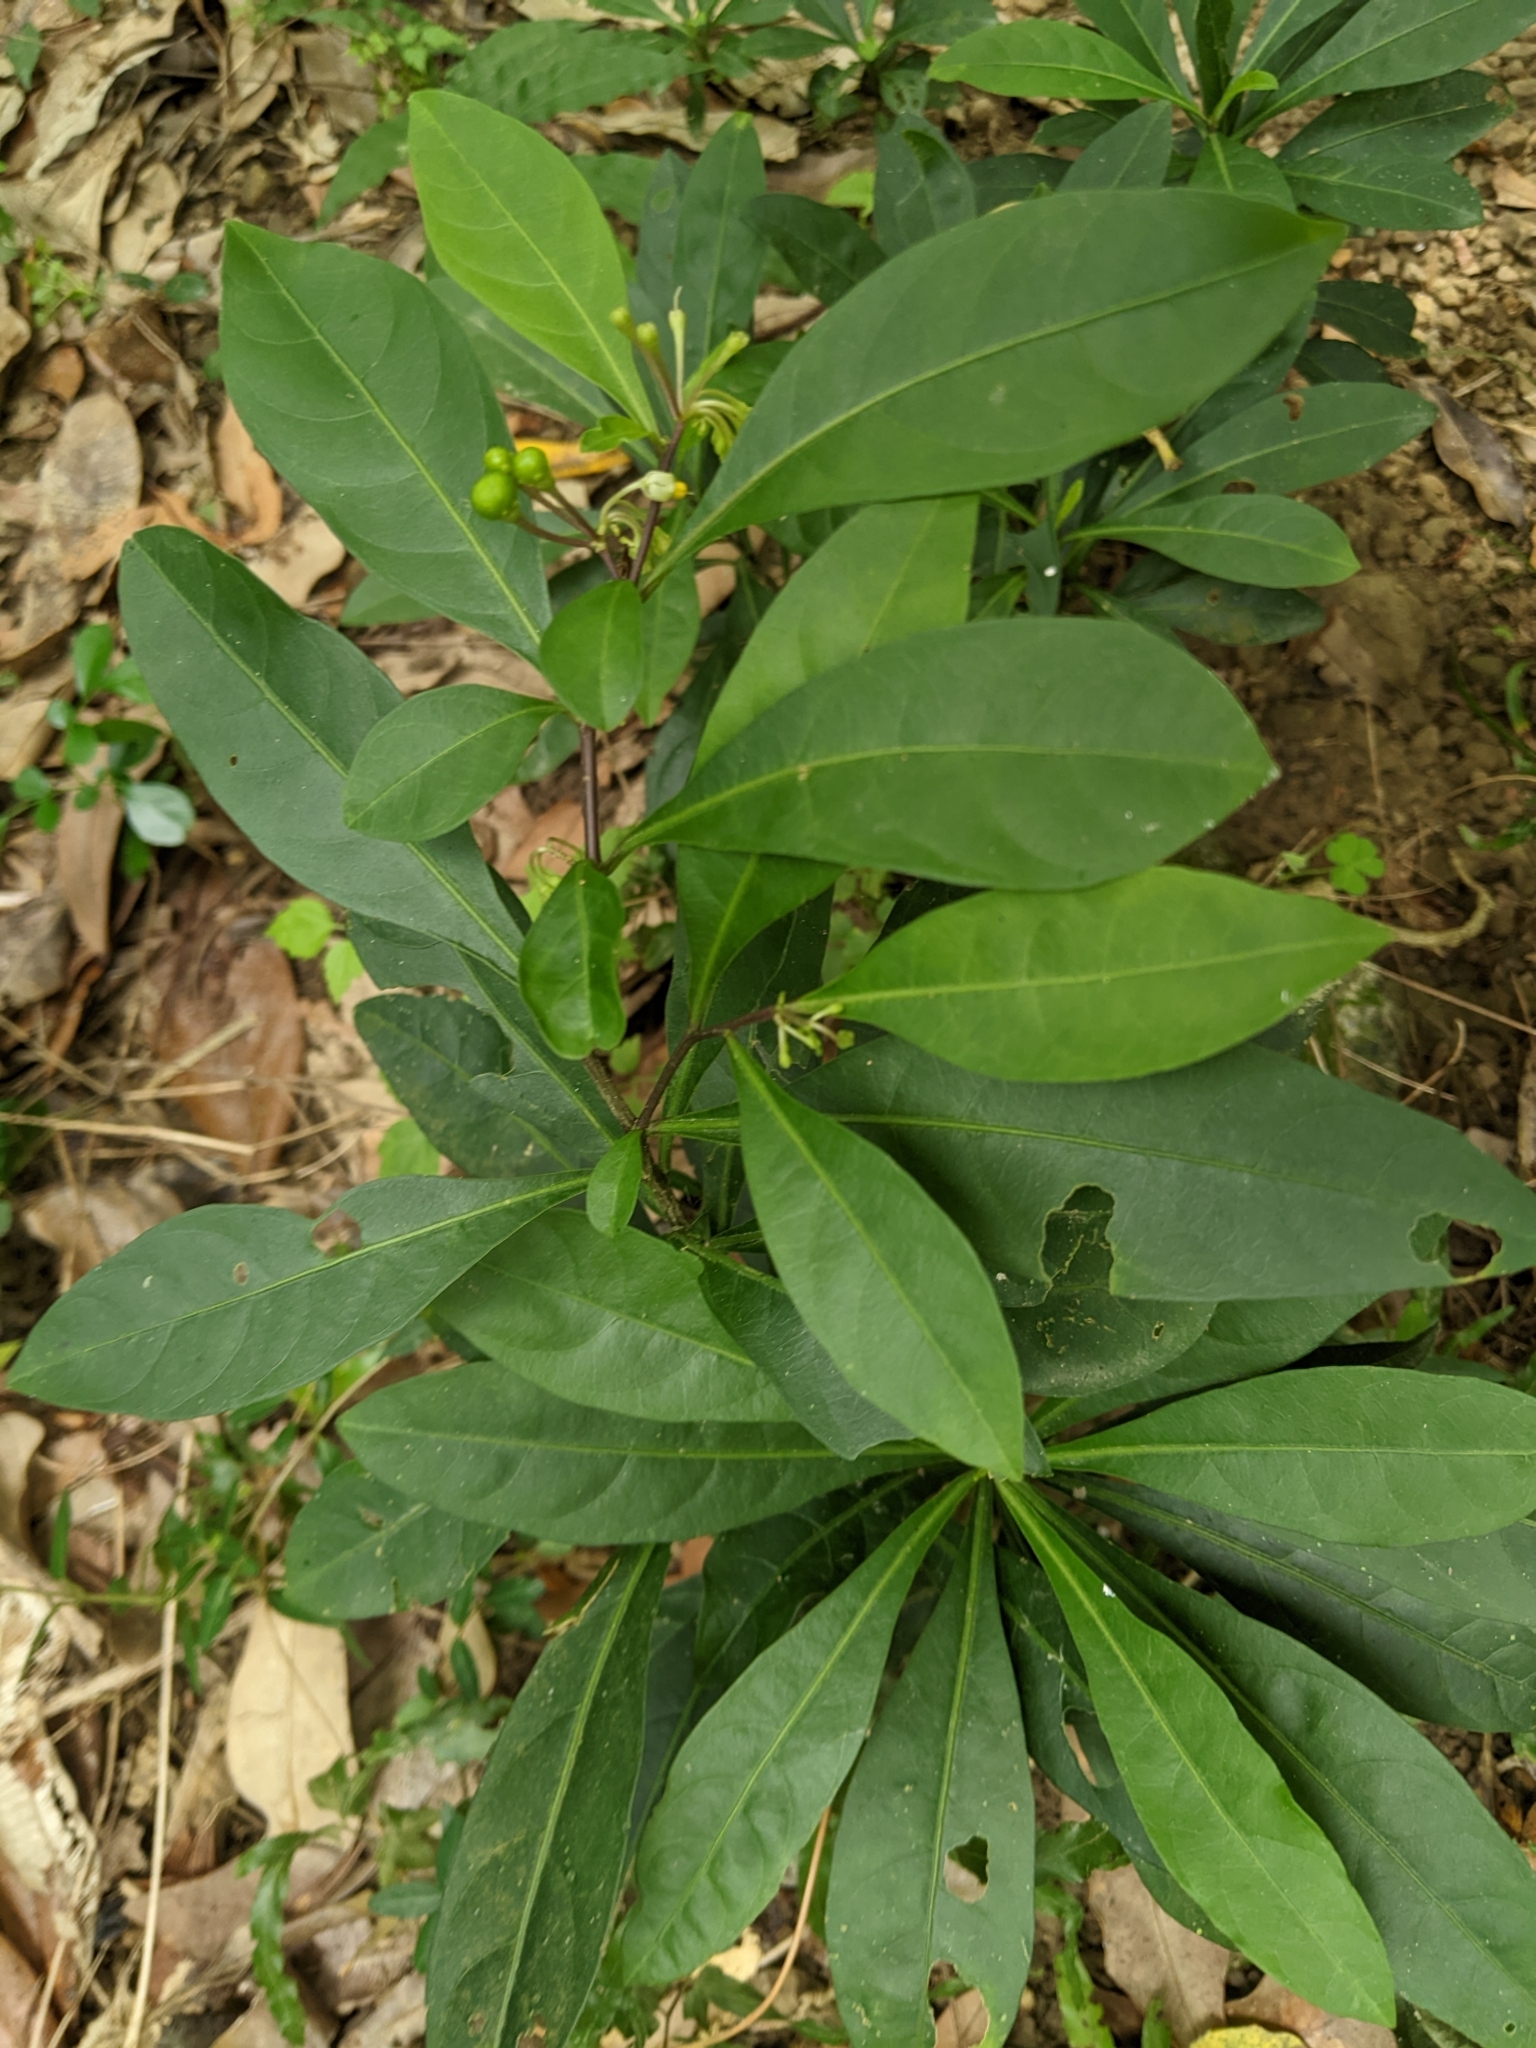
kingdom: Plantae
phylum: Tracheophyta
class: Magnoliopsida
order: Solanales
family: Solanaceae
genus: Solanum
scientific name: Solanum diphyllum
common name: Twoleaf nightshade
